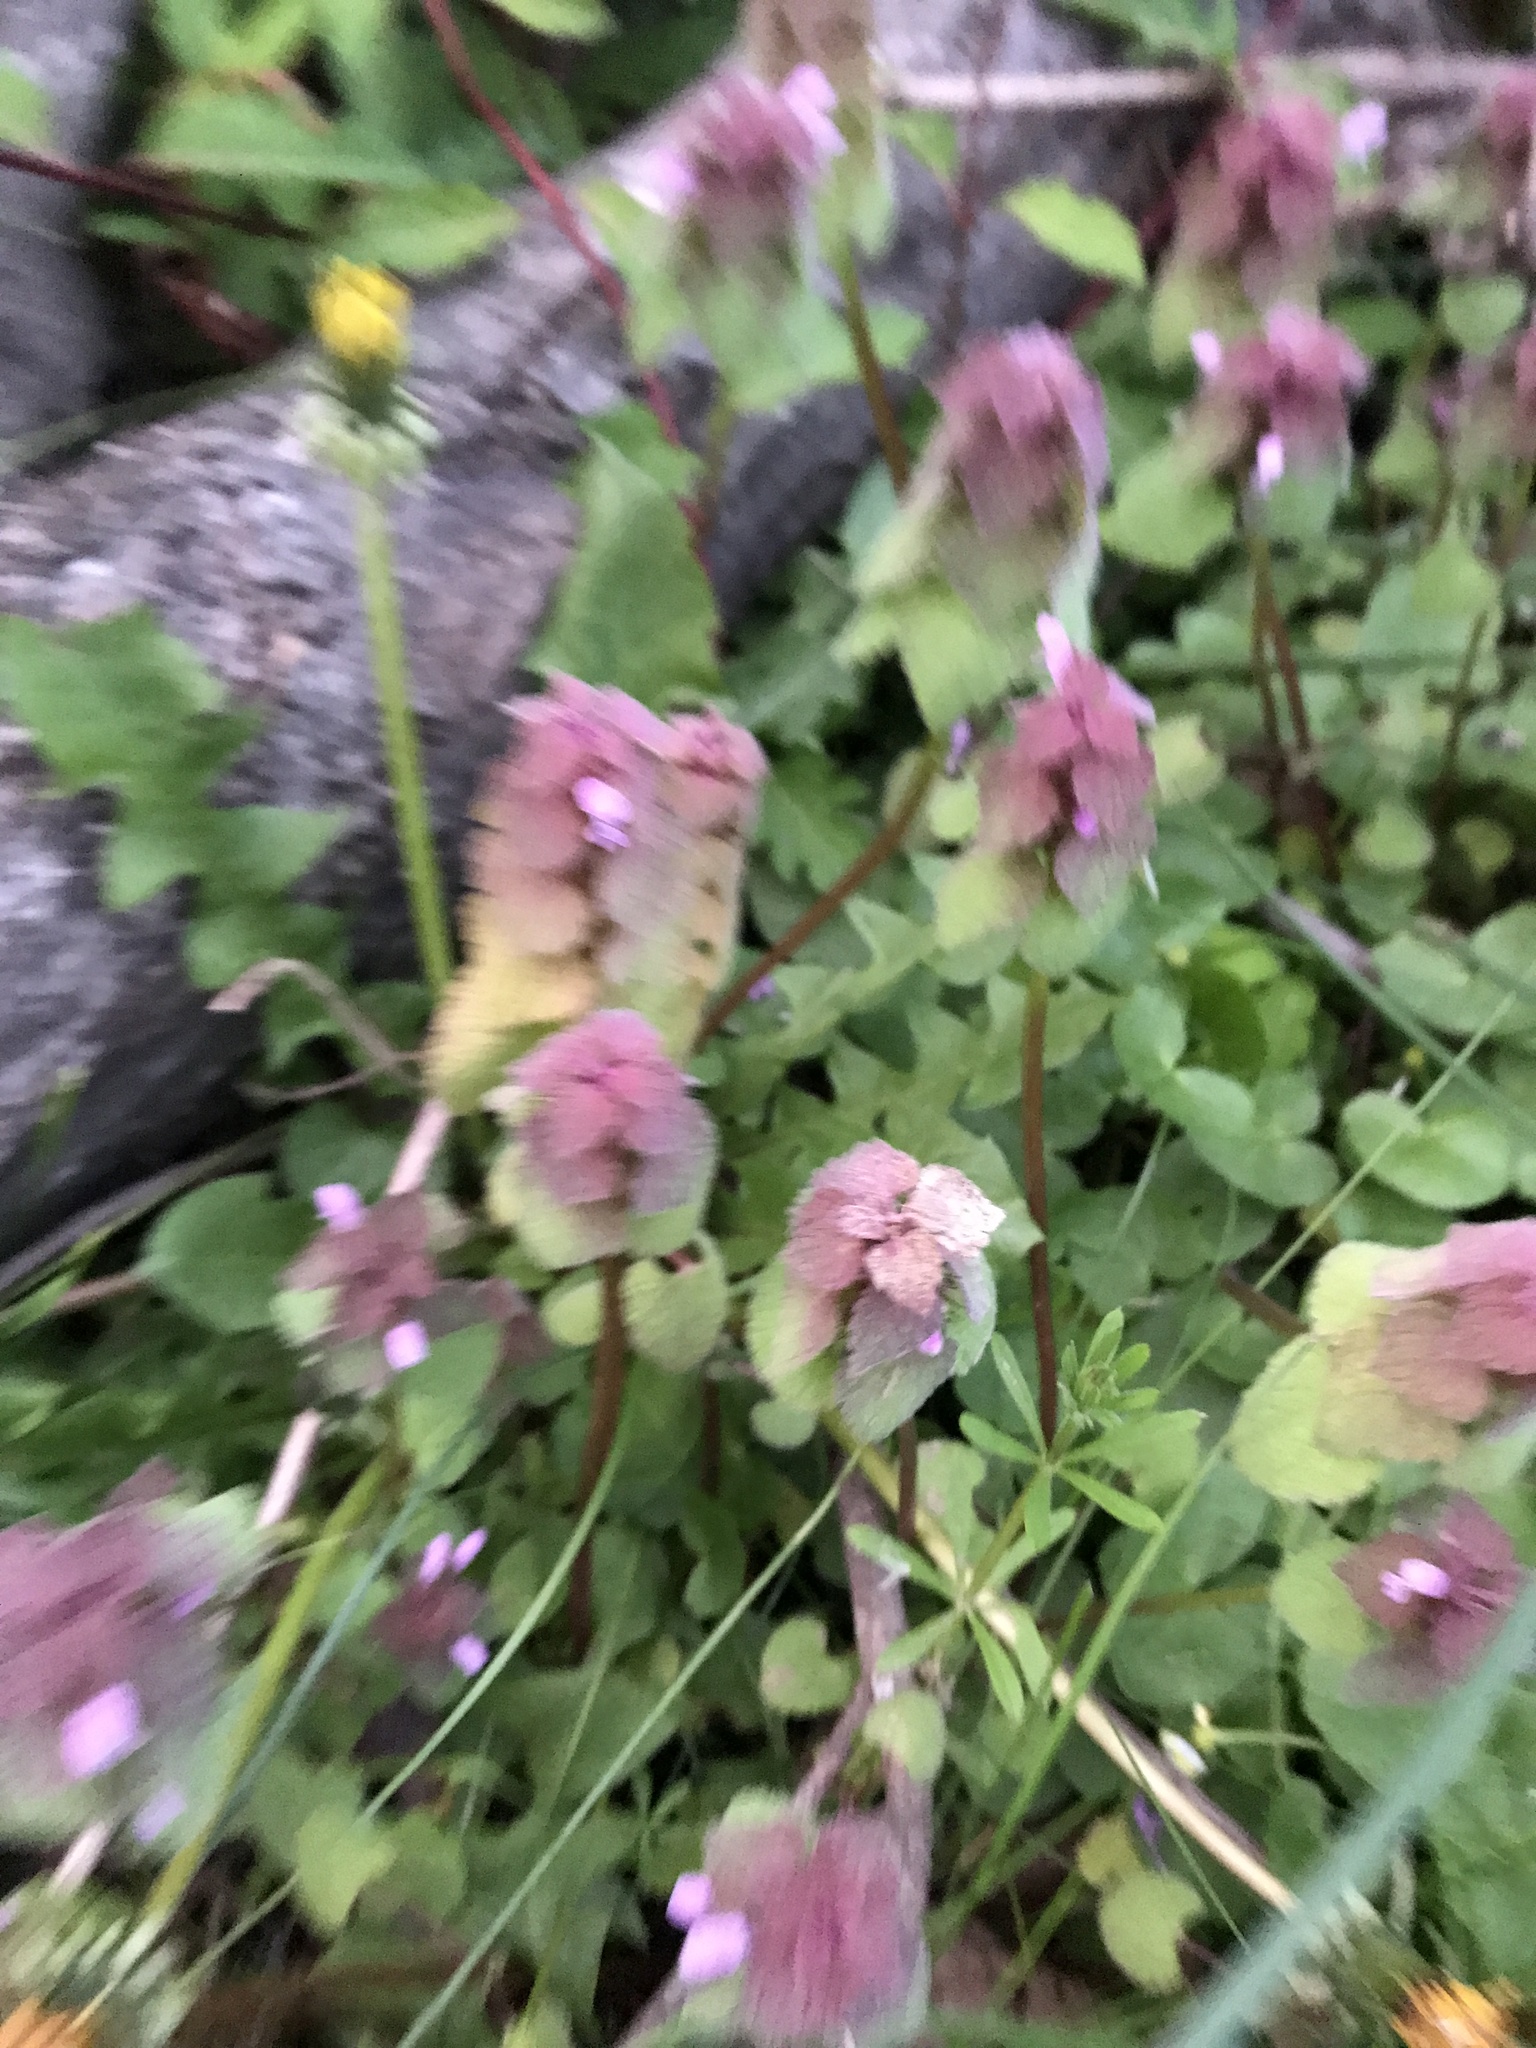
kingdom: Plantae
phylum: Tracheophyta
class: Magnoliopsida
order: Lamiales
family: Lamiaceae
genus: Lamium
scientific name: Lamium purpureum
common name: Red dead-nettle
